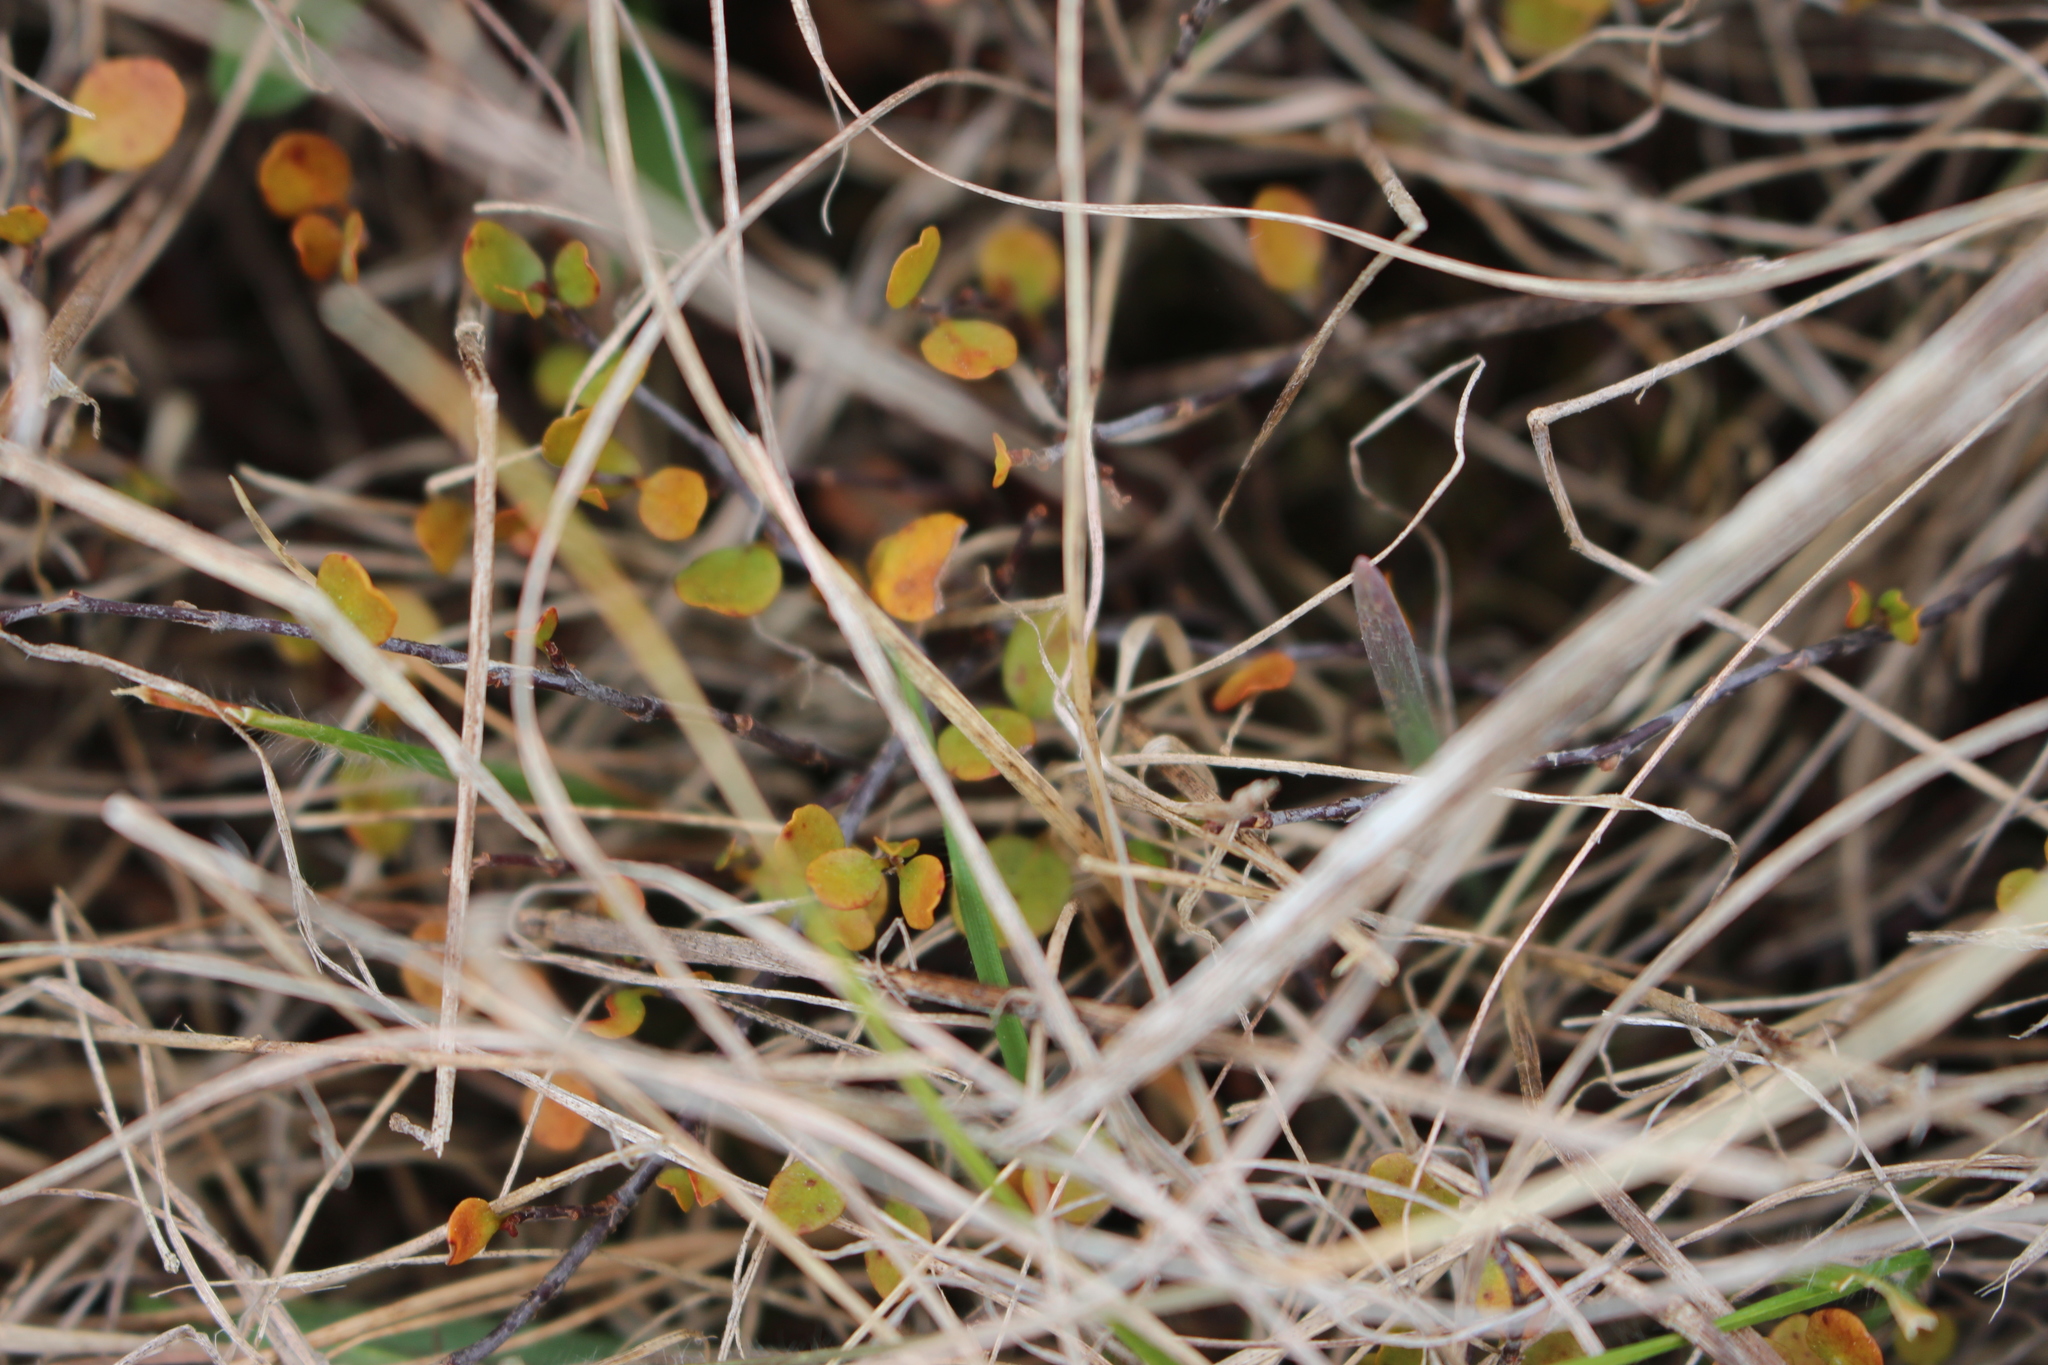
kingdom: Plantae
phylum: Tracheophyta
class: Magnoliopsida
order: Caryophyllales
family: Polygonaceae
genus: Muehlenbeckia
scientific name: Muehlenbeckia axillaris
